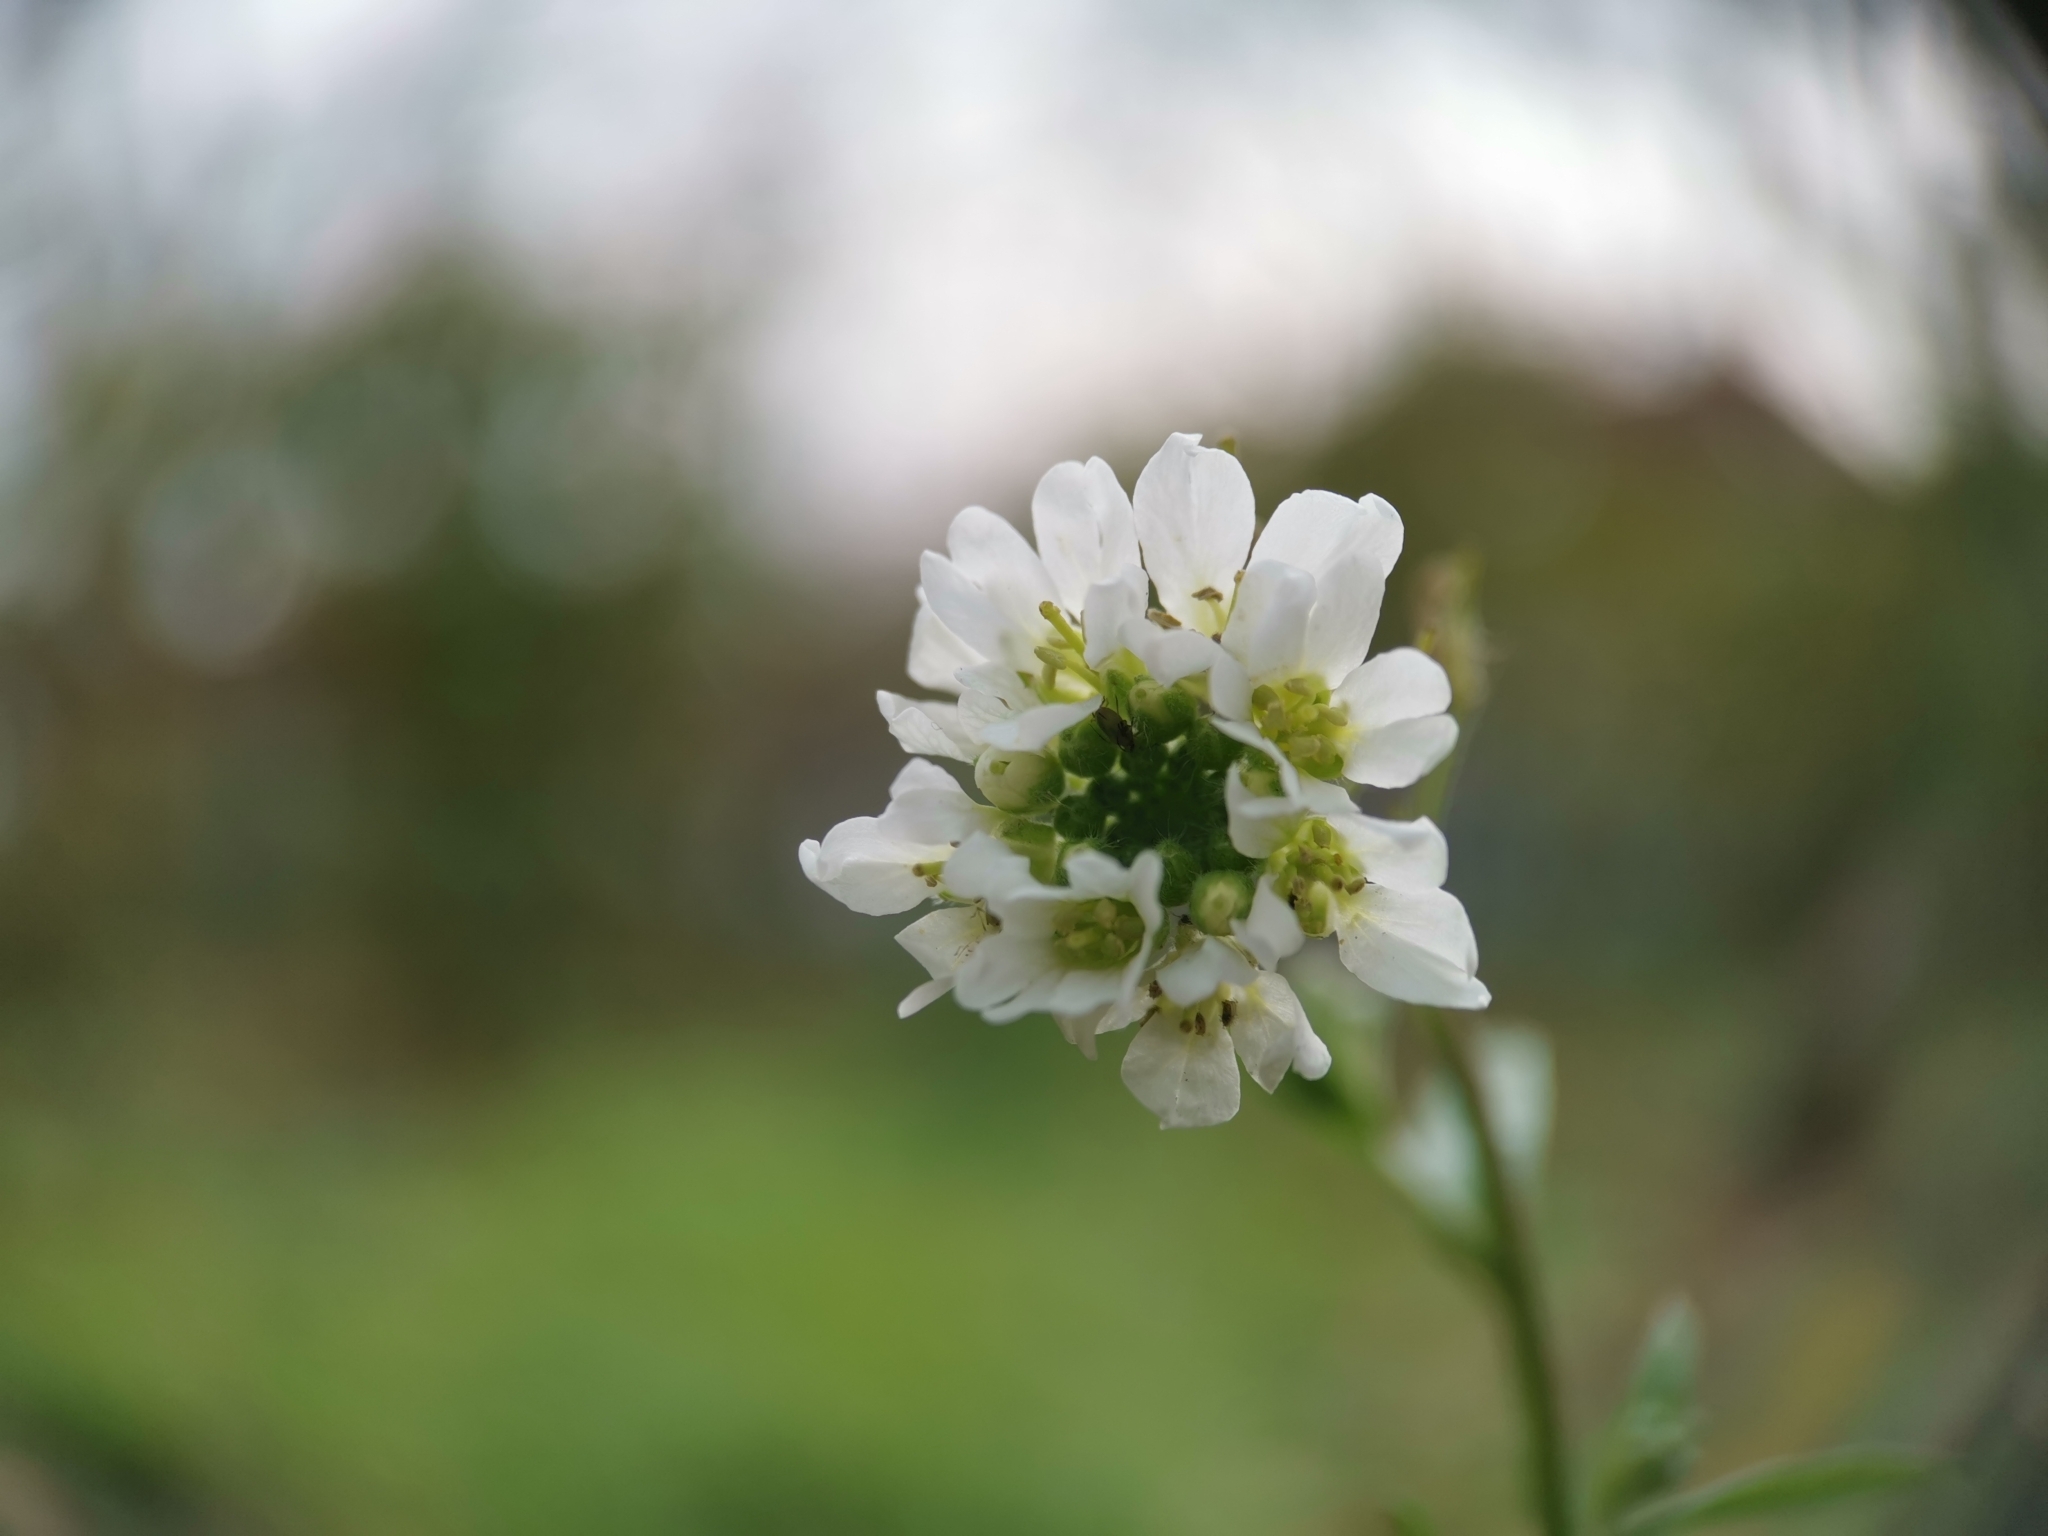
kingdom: Plantae
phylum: Tracheophyta
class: Magnoliopsida
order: Brassicales
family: Brassicaceae
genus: Berteroa
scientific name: Berteroa incana
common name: Hoary alison
